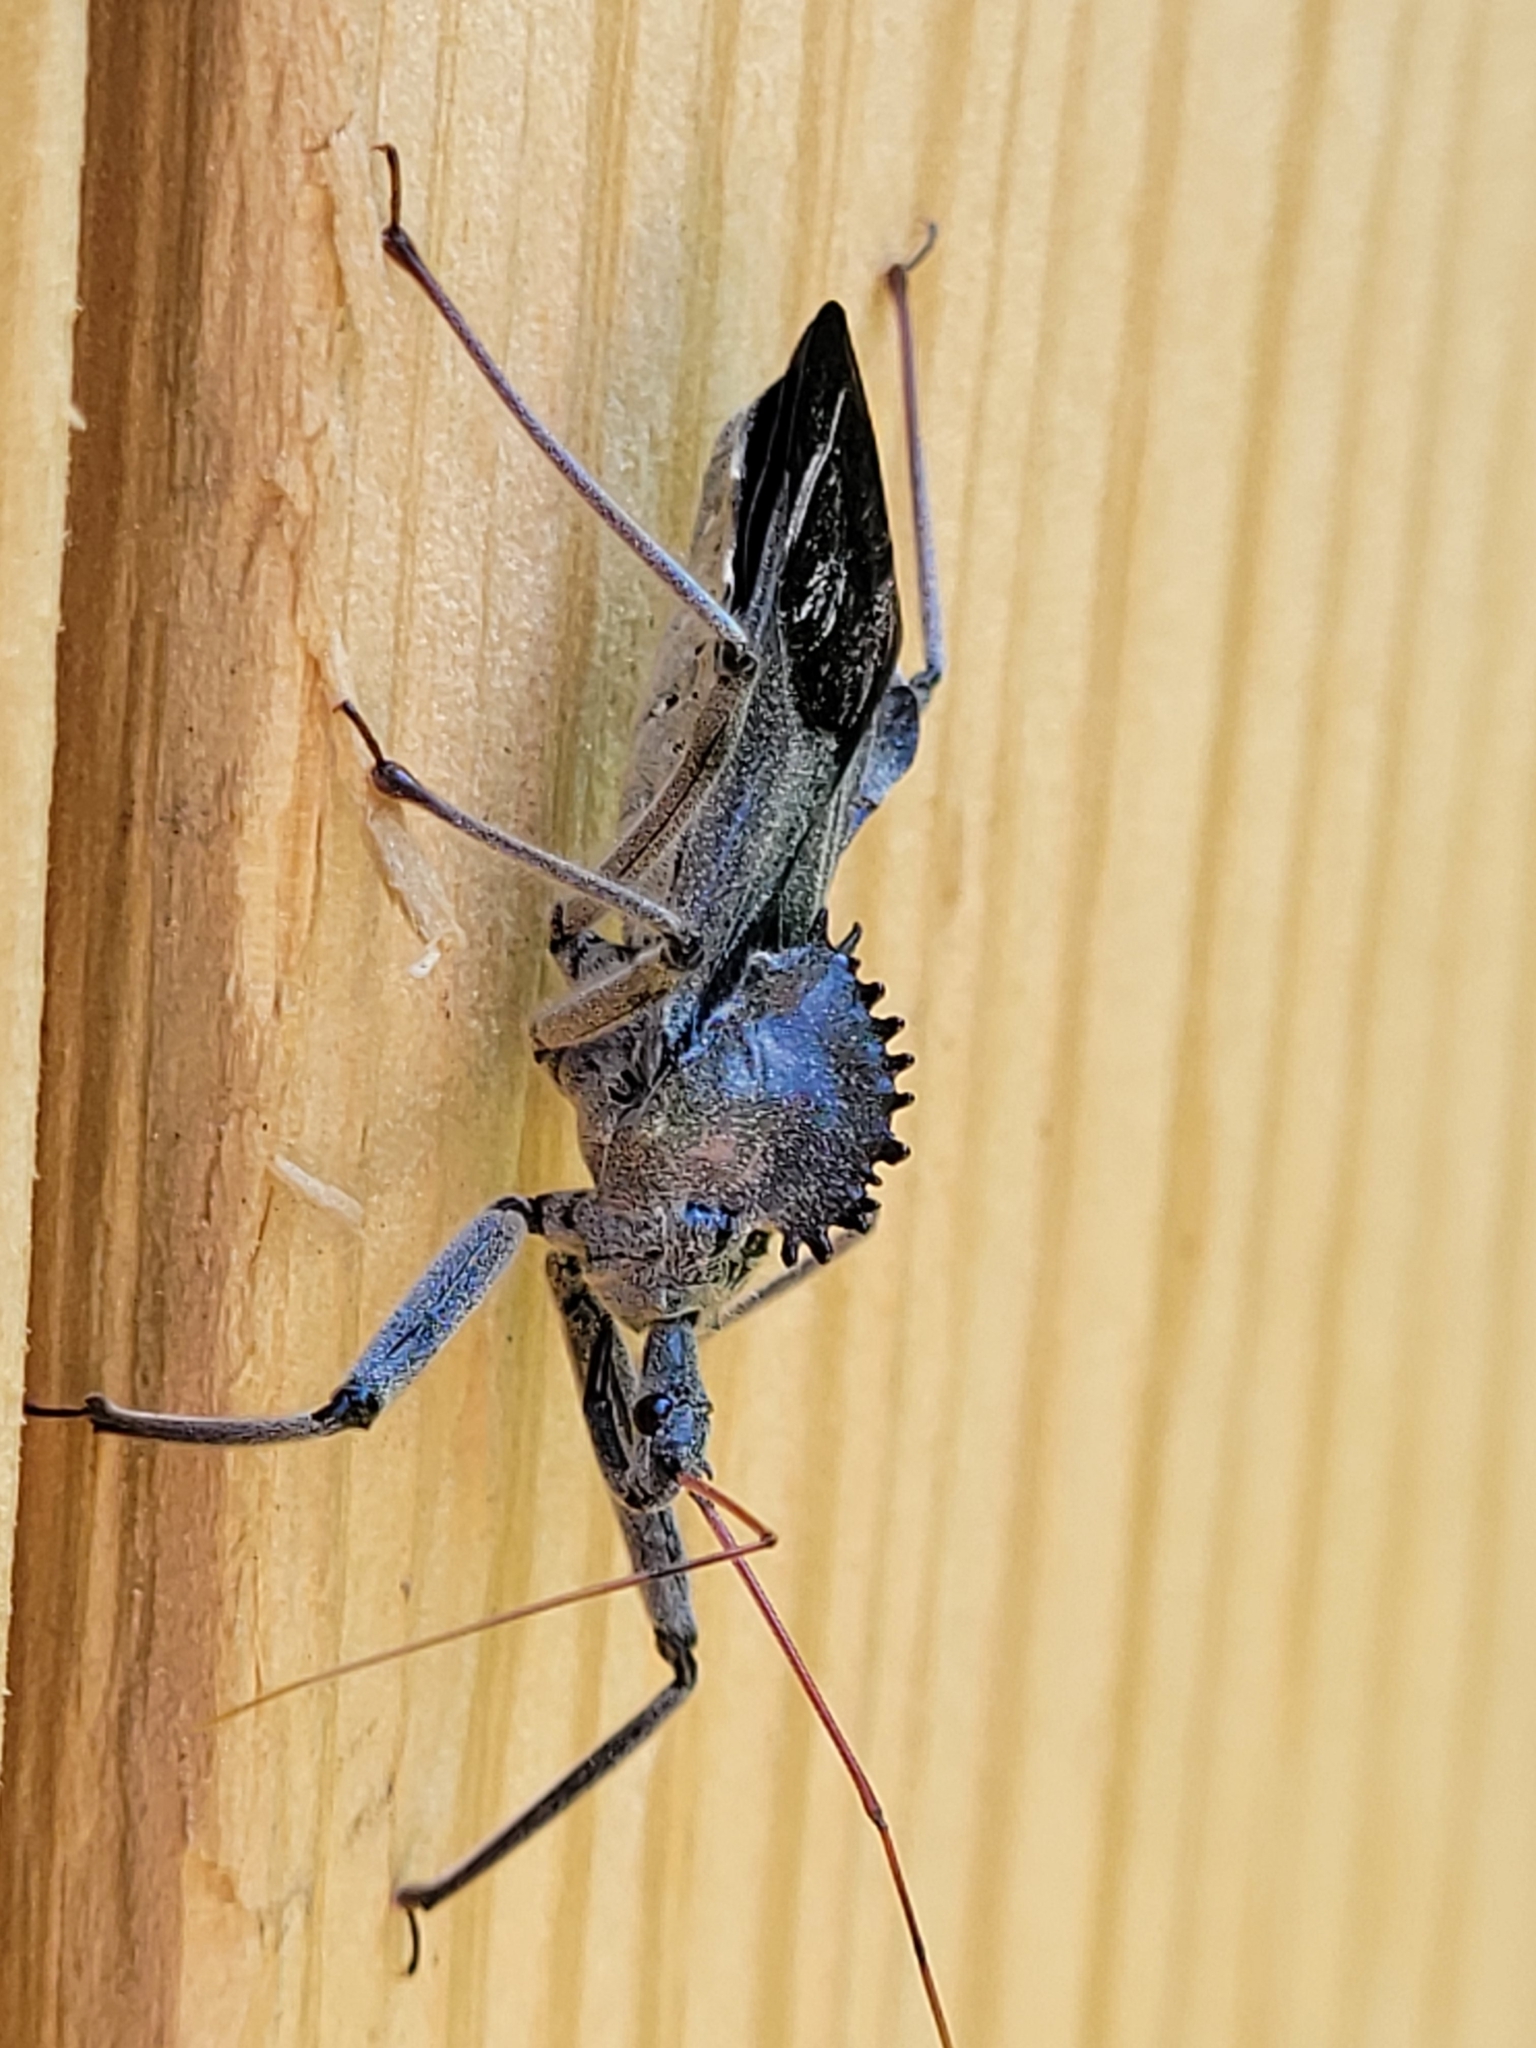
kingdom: Animalia
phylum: Arthropoda
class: Insecta
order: Hemiptera
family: Reduviidae
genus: Arilus
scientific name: Arilus cristatus
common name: North american wheel bug
